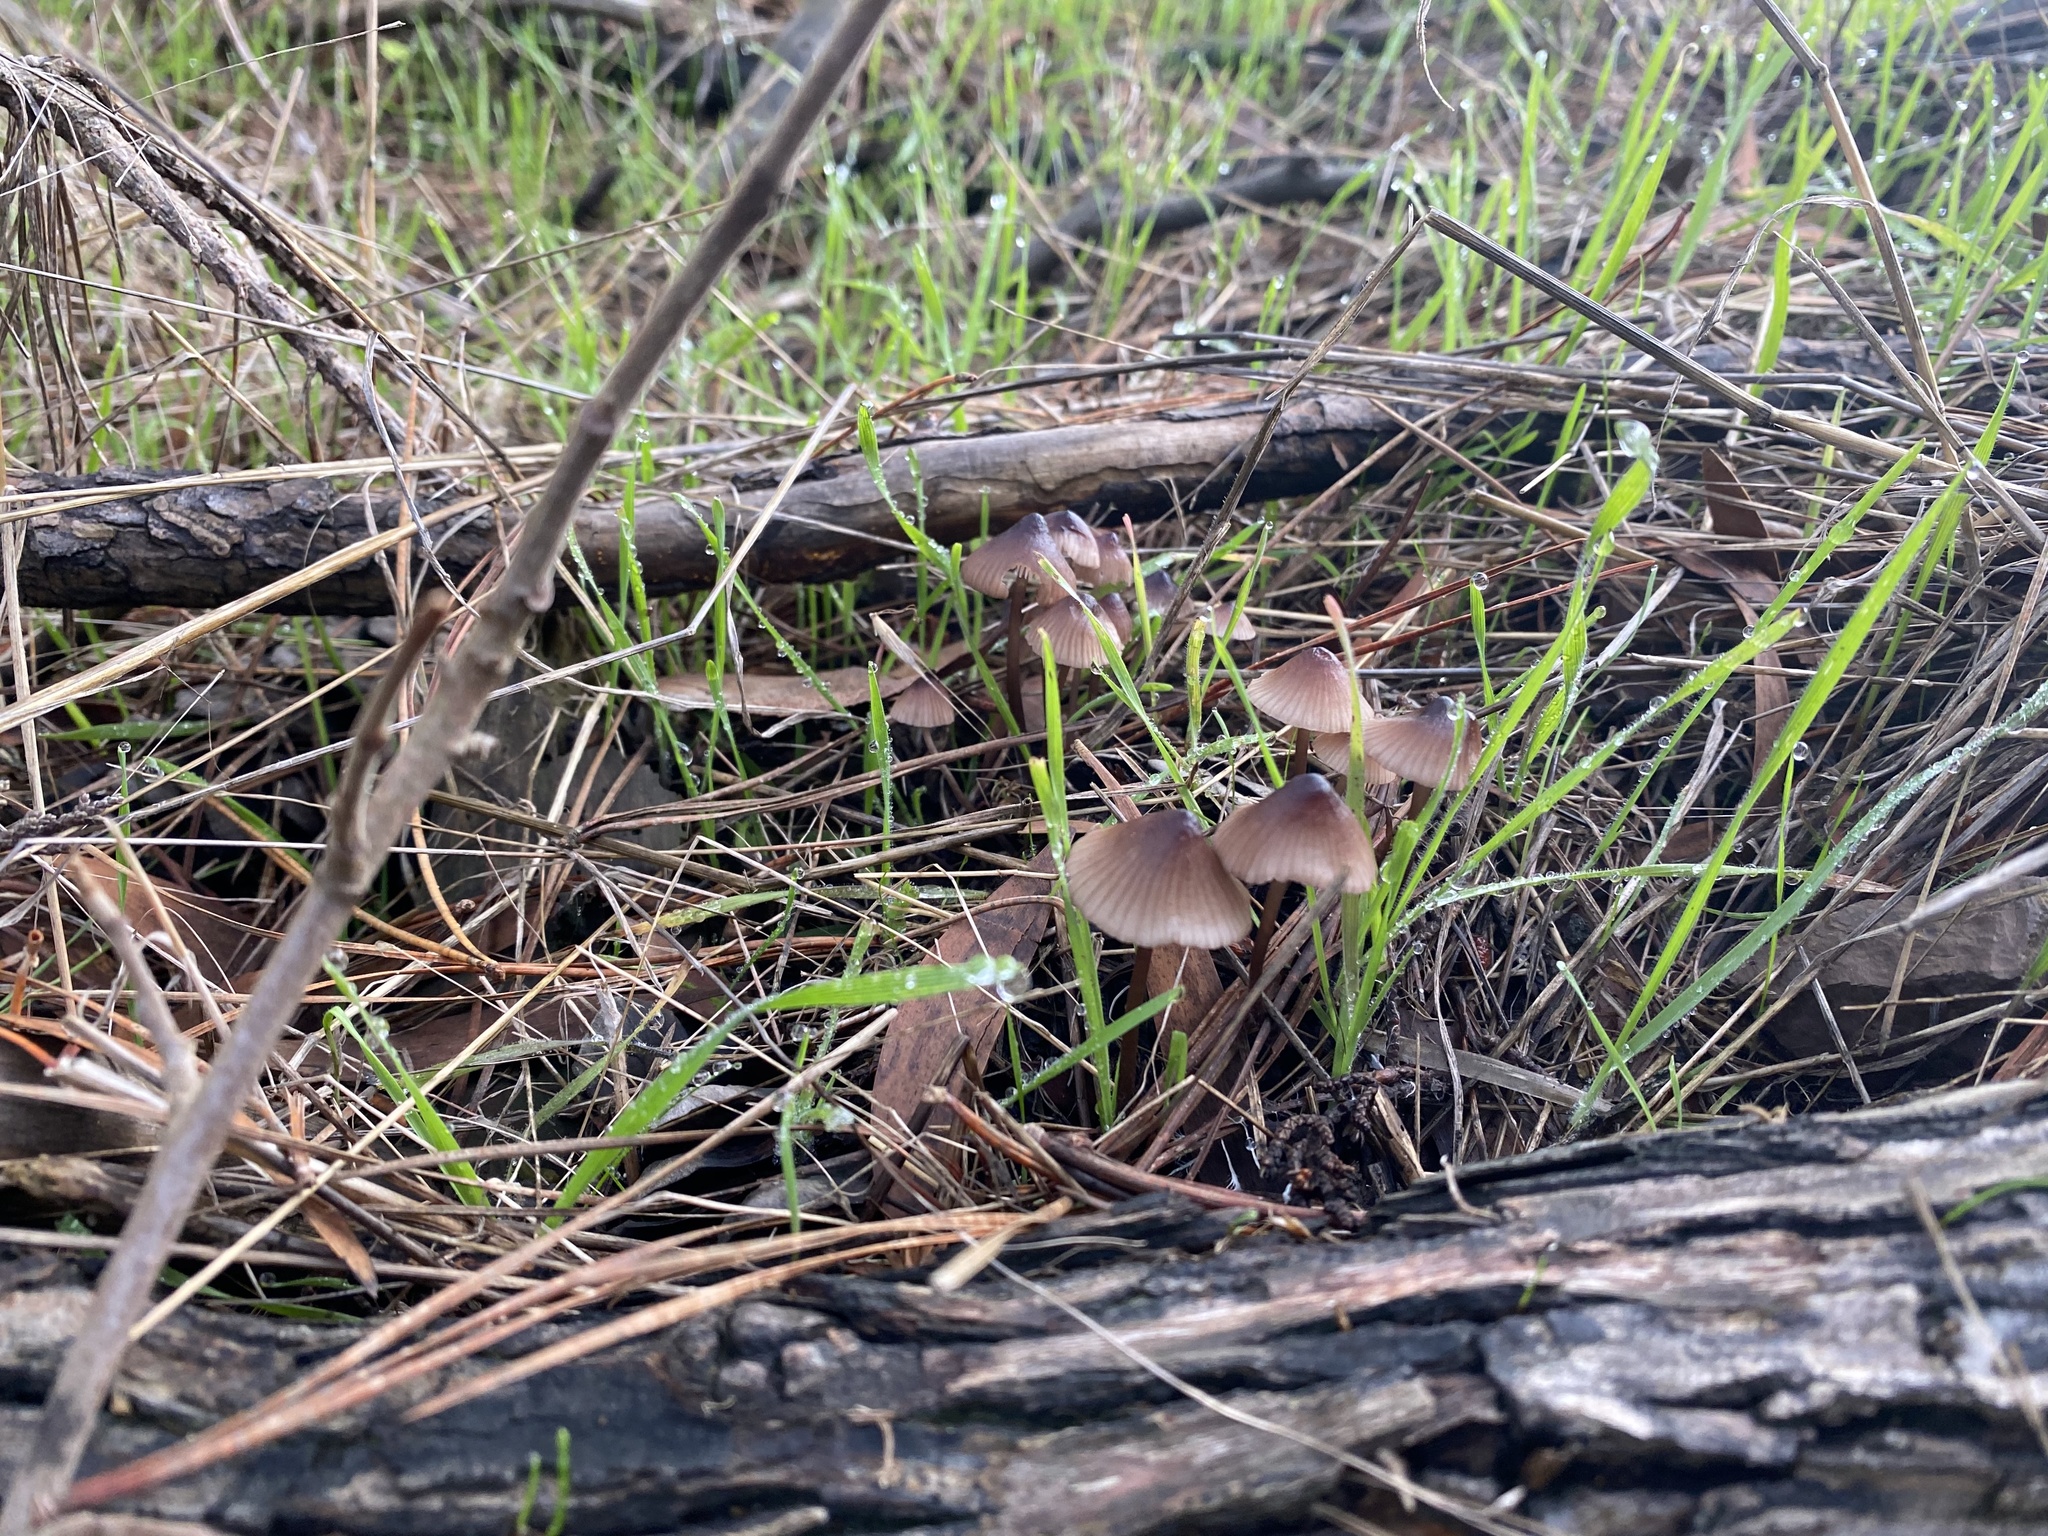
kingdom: Fungi
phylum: Basidiomycota
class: Agaricomycetes
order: Agaricales
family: Mycenaceae
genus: Mycena
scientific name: Mycena purpureofusca
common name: Purple edge bonnet
